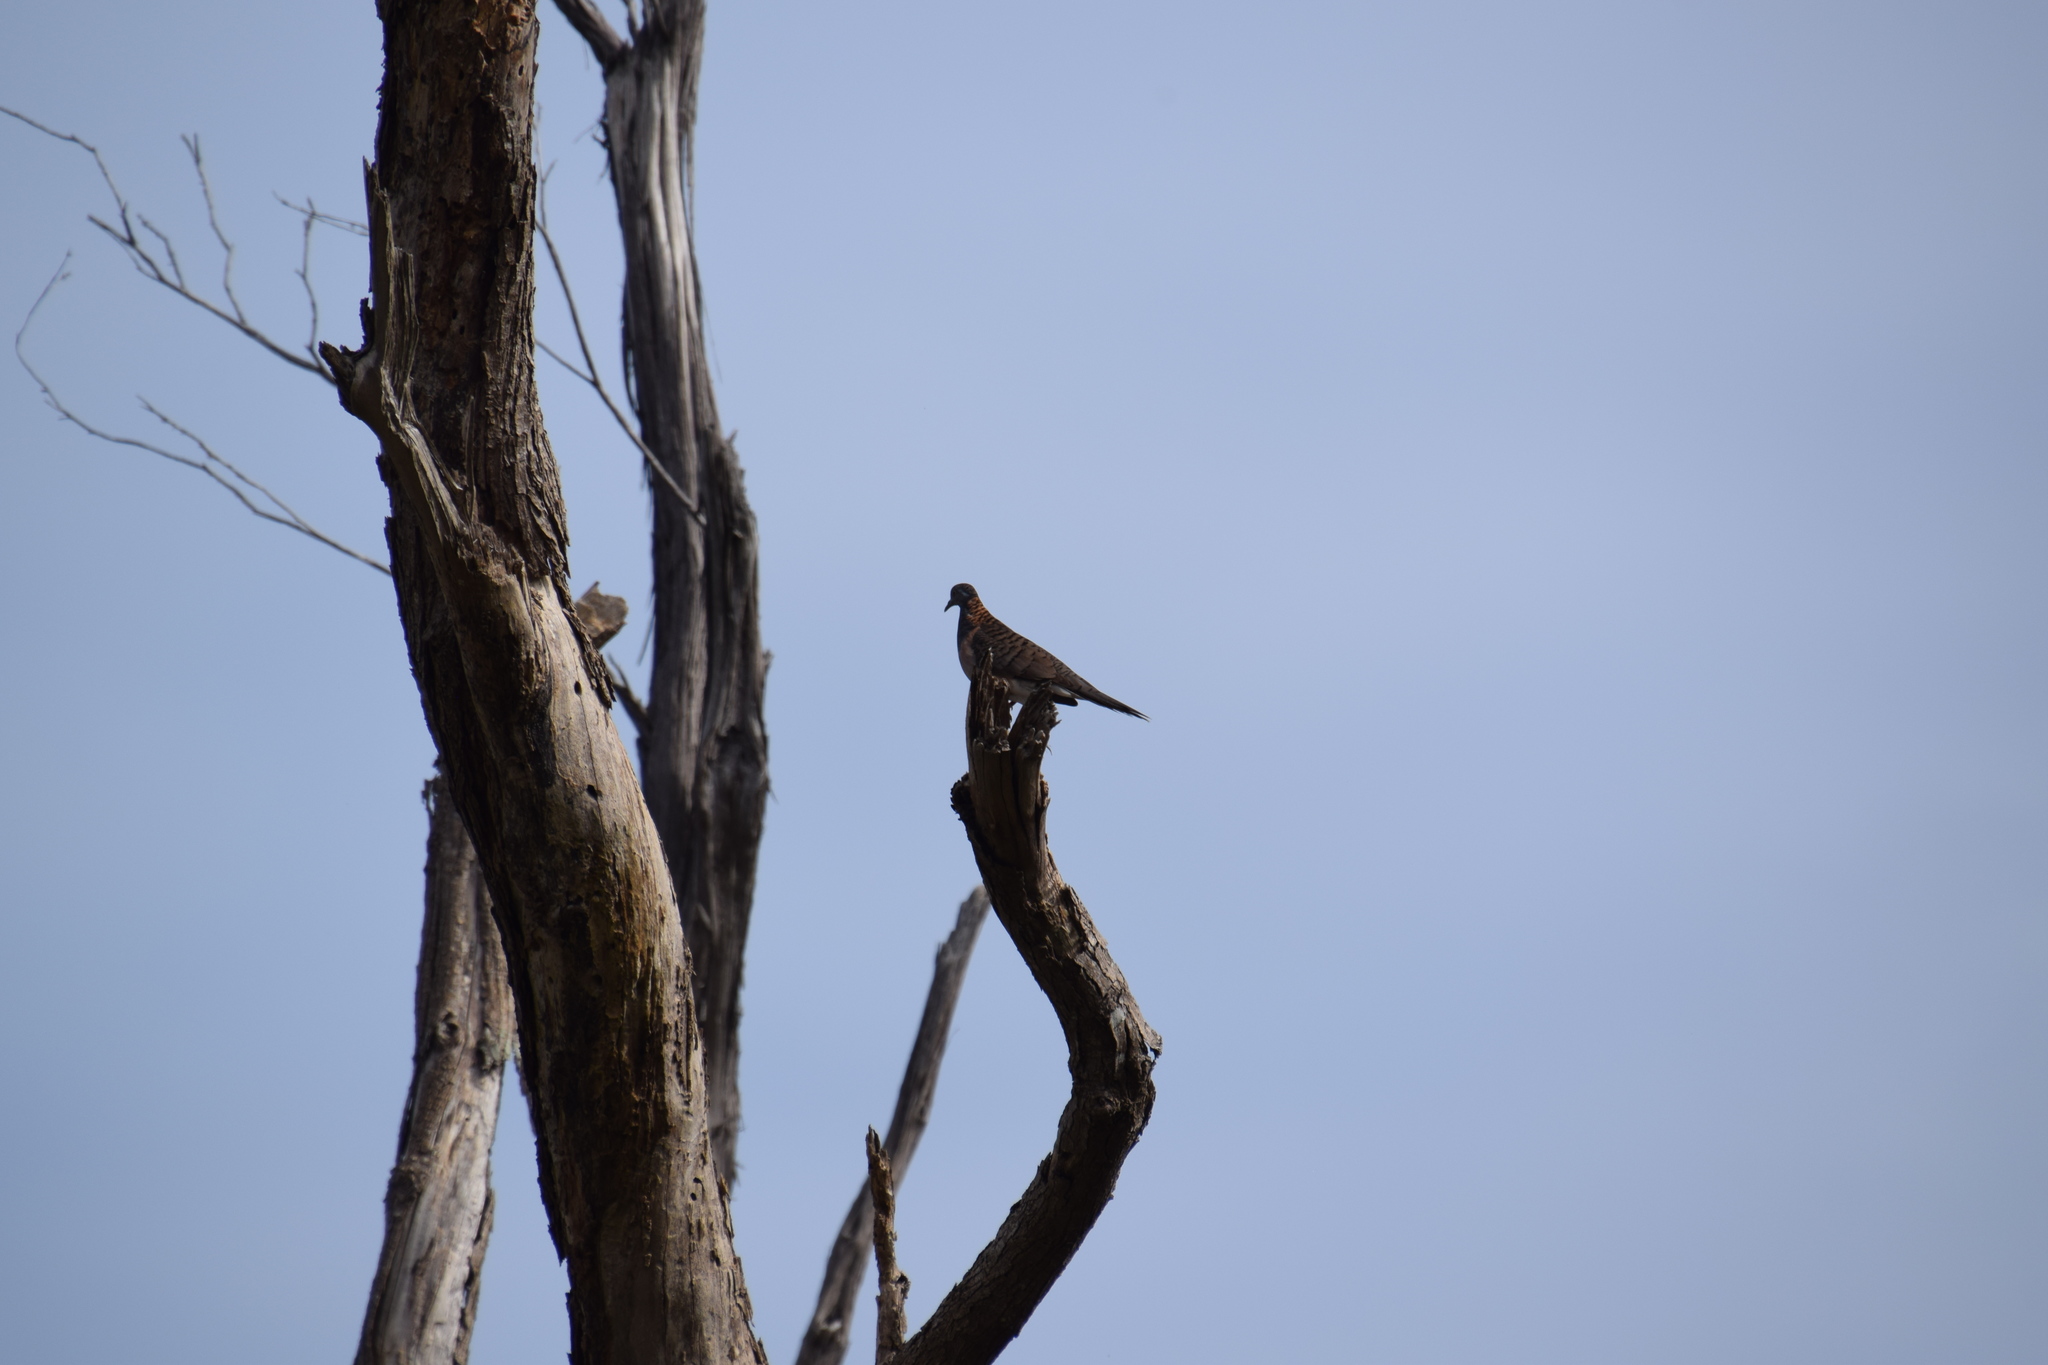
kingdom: Animalia
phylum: Chordata
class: Aves
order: Columbiformes
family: Columbidae
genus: Geopelia
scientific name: Geopelia humeralis
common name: Bar-shouldered dove
